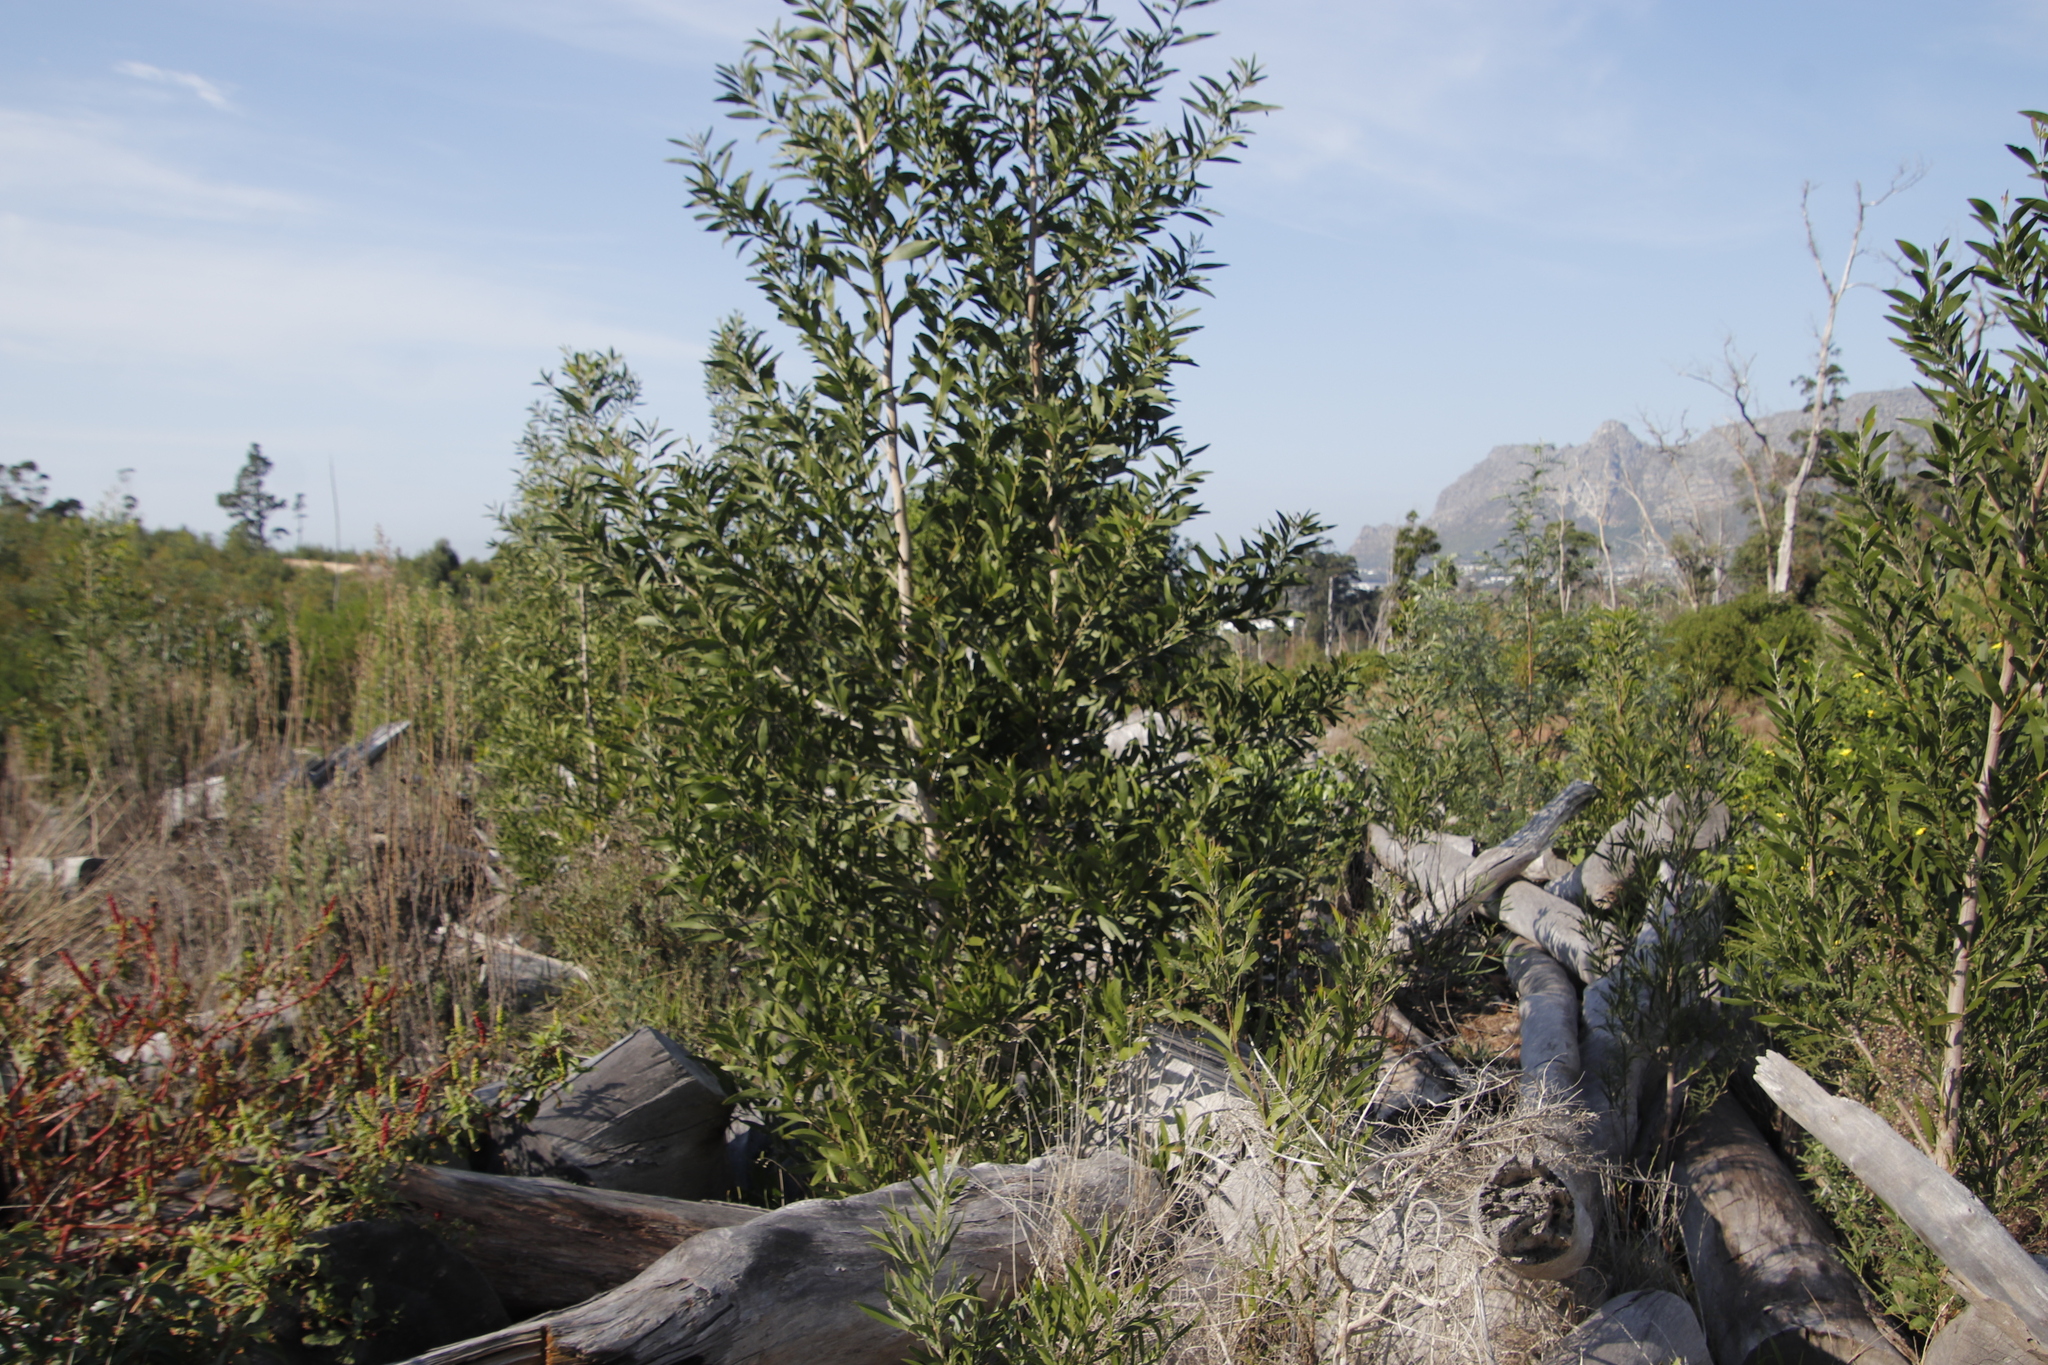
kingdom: Plantae
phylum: Tracheophyta
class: Magnoliopsida
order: Fabales
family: Fabaceae
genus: Acacia
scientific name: Acacia melanoxylon
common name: Blackwood
